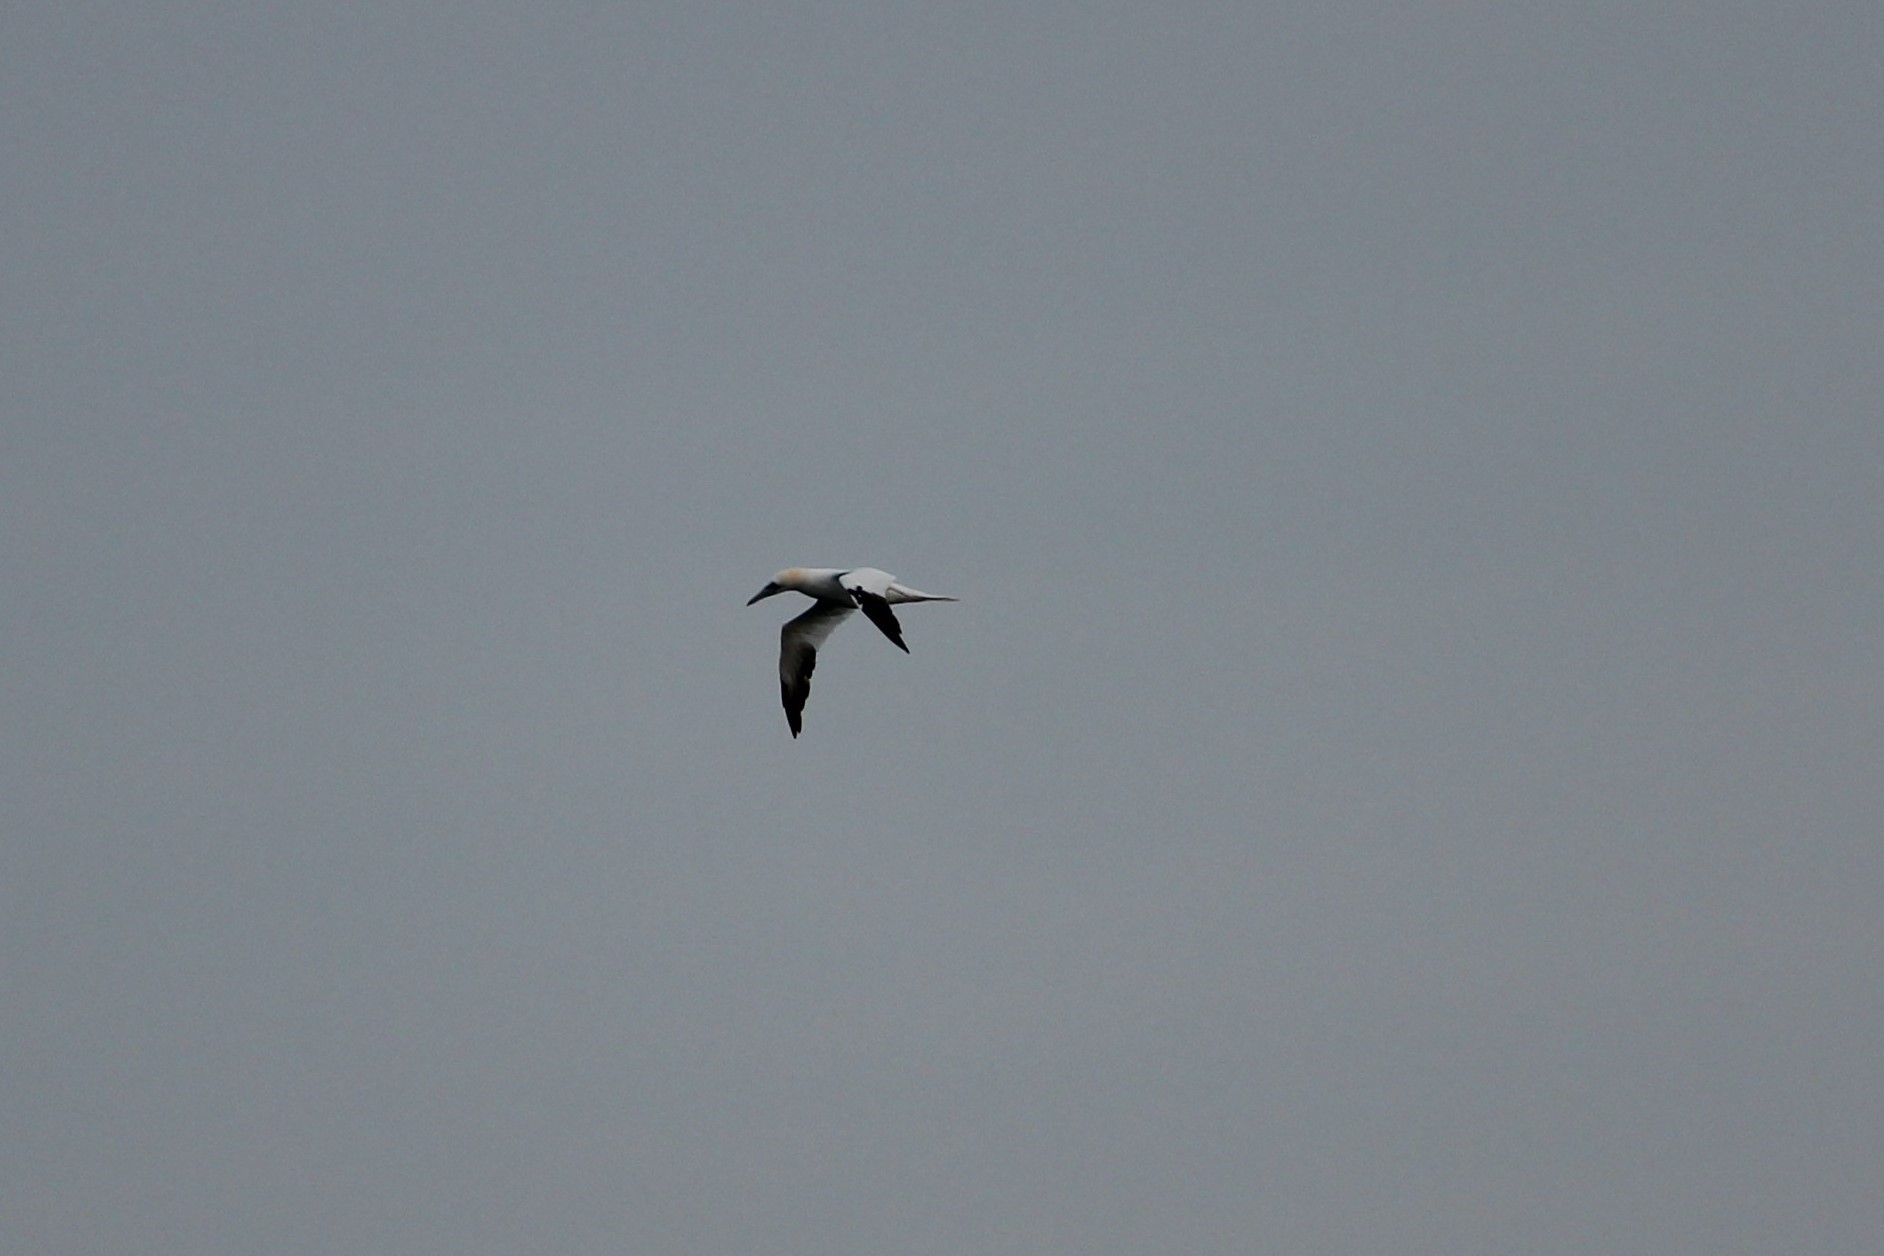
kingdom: Animalia
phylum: Chordata
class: Aves
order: Suliformes
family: Sulidae
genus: Morus
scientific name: Morus bassanus
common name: Northern gannet
